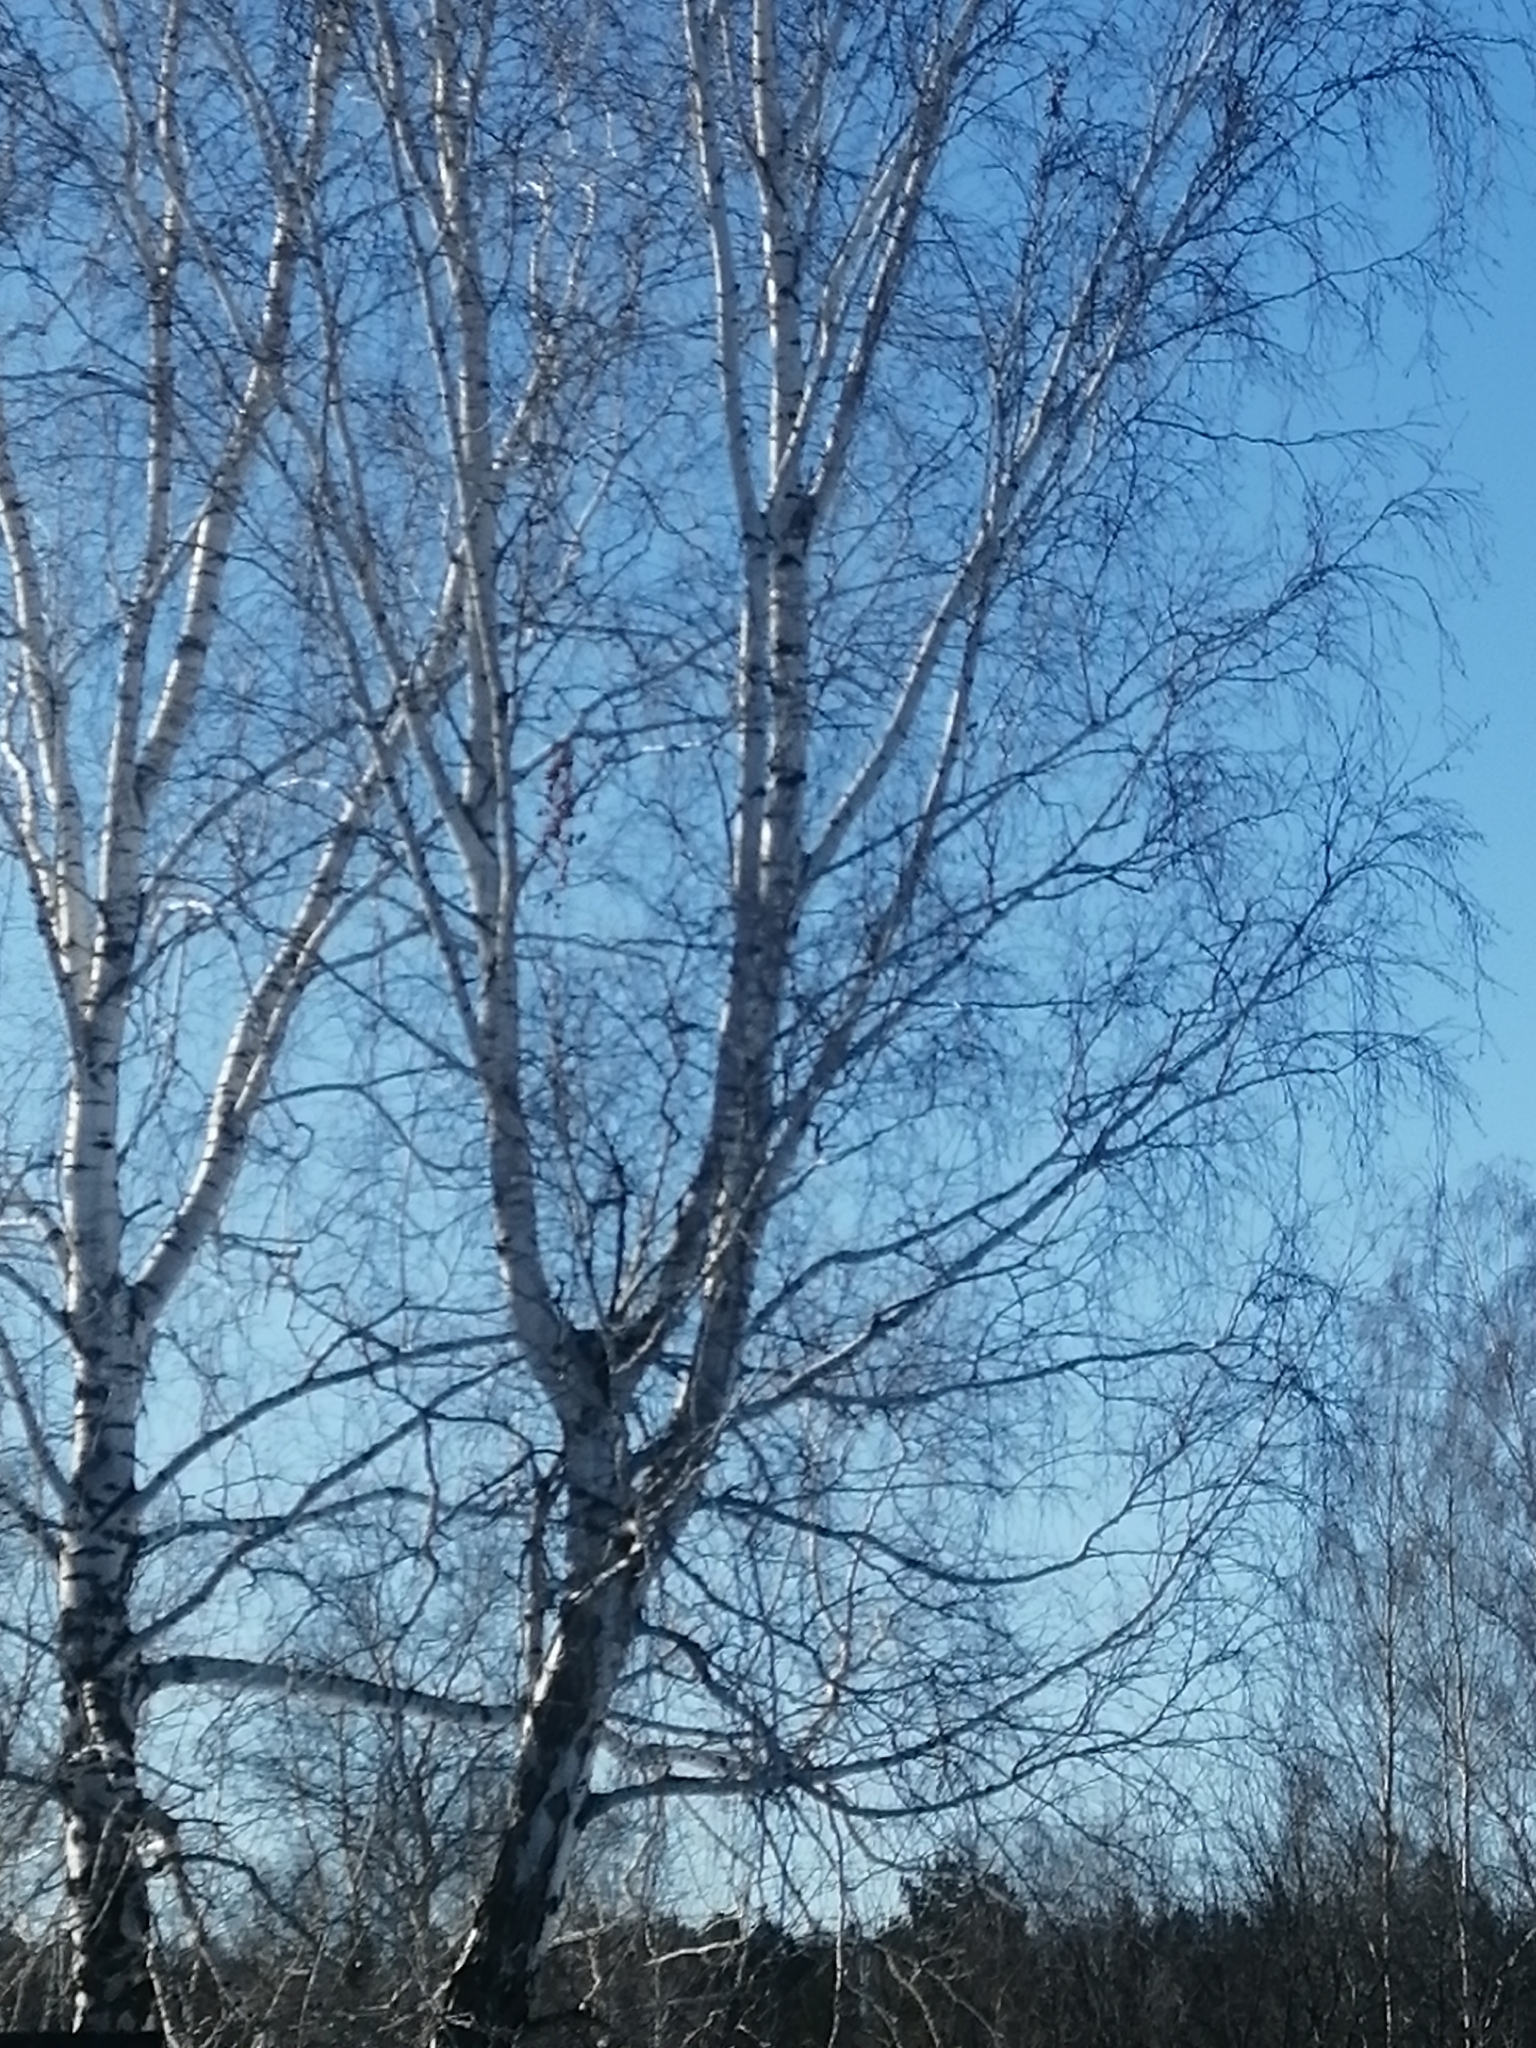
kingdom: Plantae
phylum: Tracheophyta
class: Magnoliopsida
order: Fagales
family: Betulaceae
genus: Betula
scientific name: Betula pendula
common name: Silver birch
